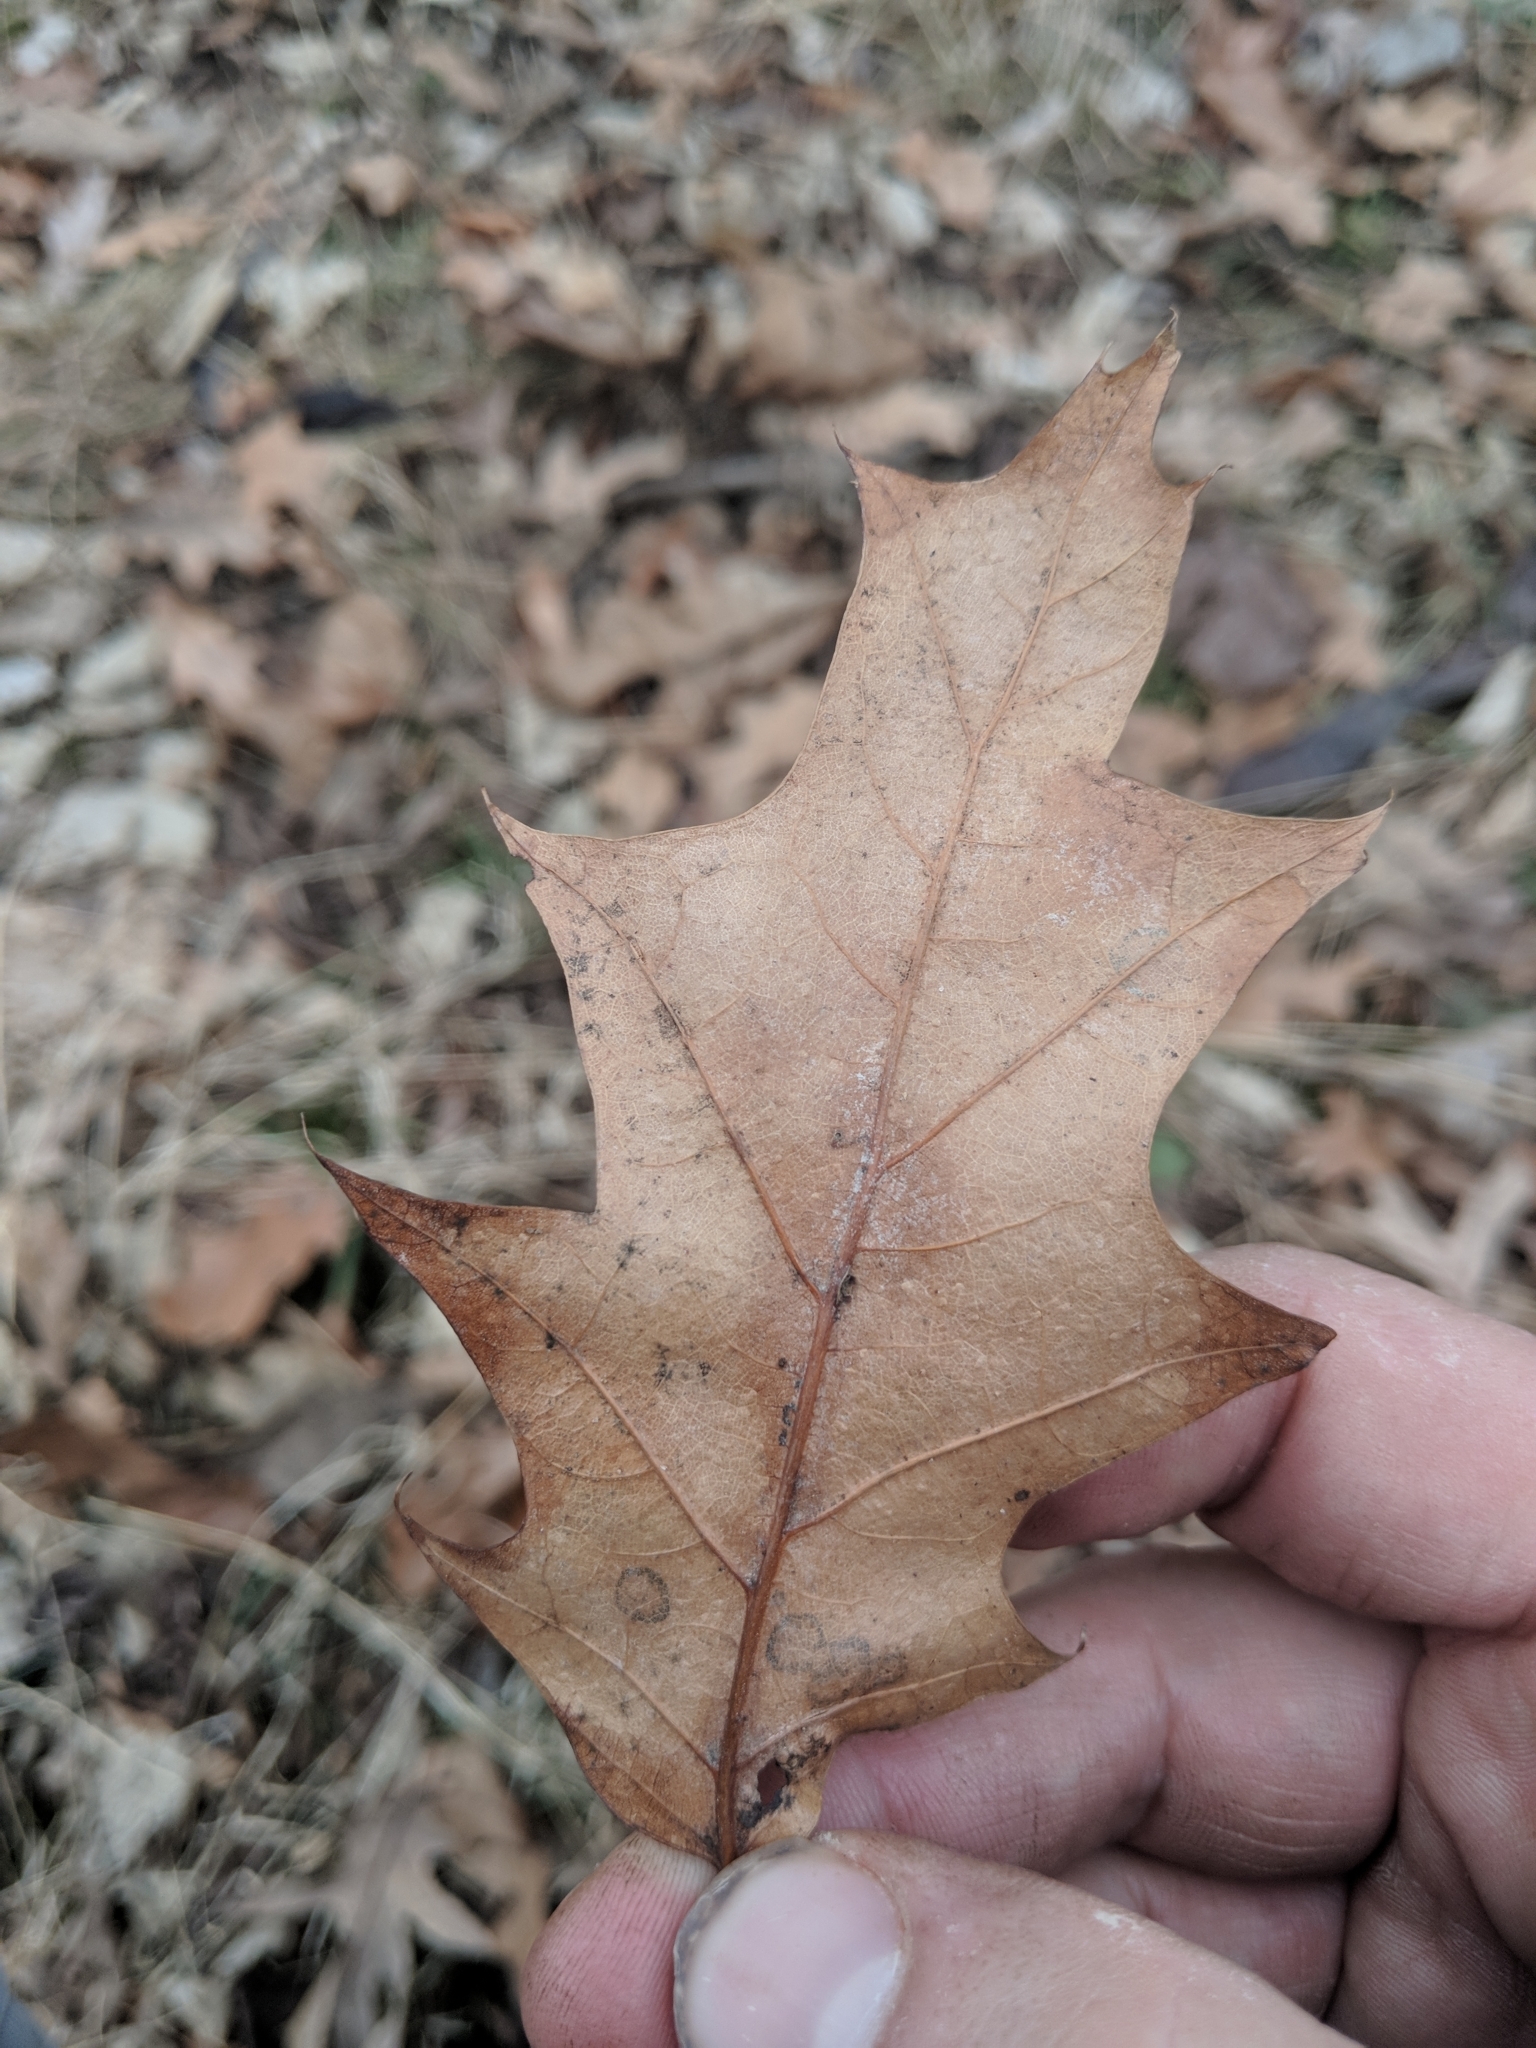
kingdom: Plantae
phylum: Tracheophyta
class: Magnoliopsida
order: Fagales
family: Fagaceae
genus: Quercus
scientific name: Quercus rubra
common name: Red oak
